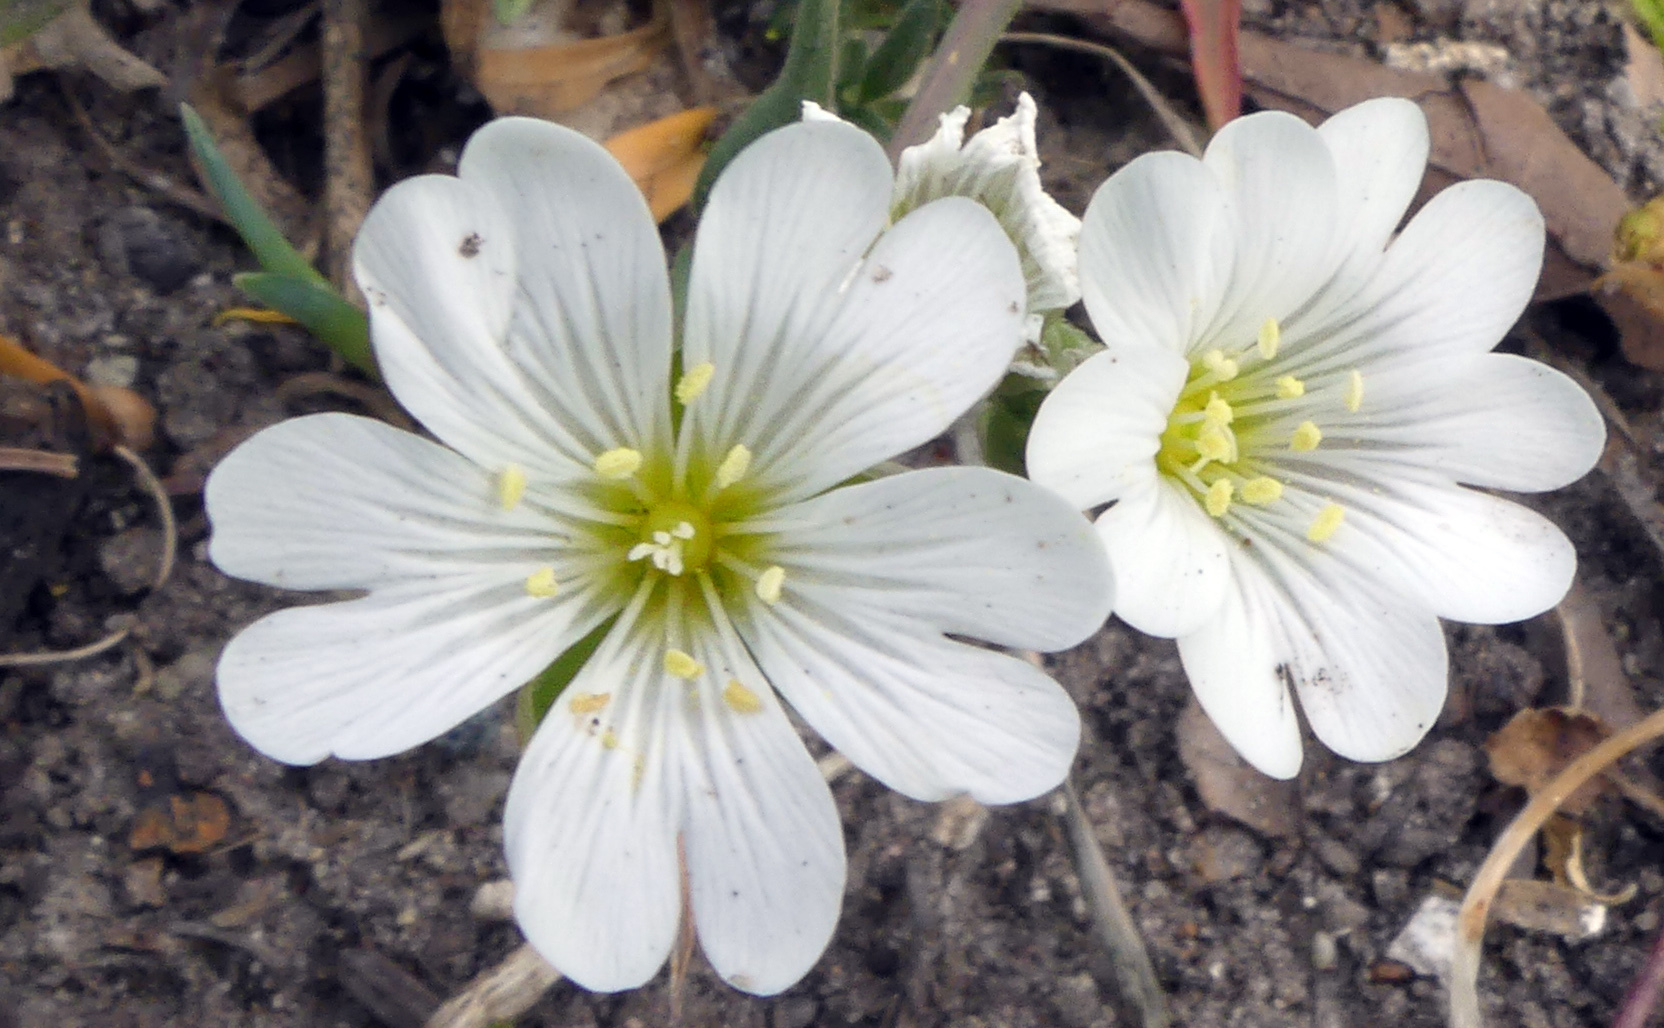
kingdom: Plantae
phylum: Tracheophyta
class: Magnoliopsida
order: Caryophyllales
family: Caryophyllaceae
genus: Cerastium
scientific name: Cerastium tomentosum
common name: Snow-in-summer
